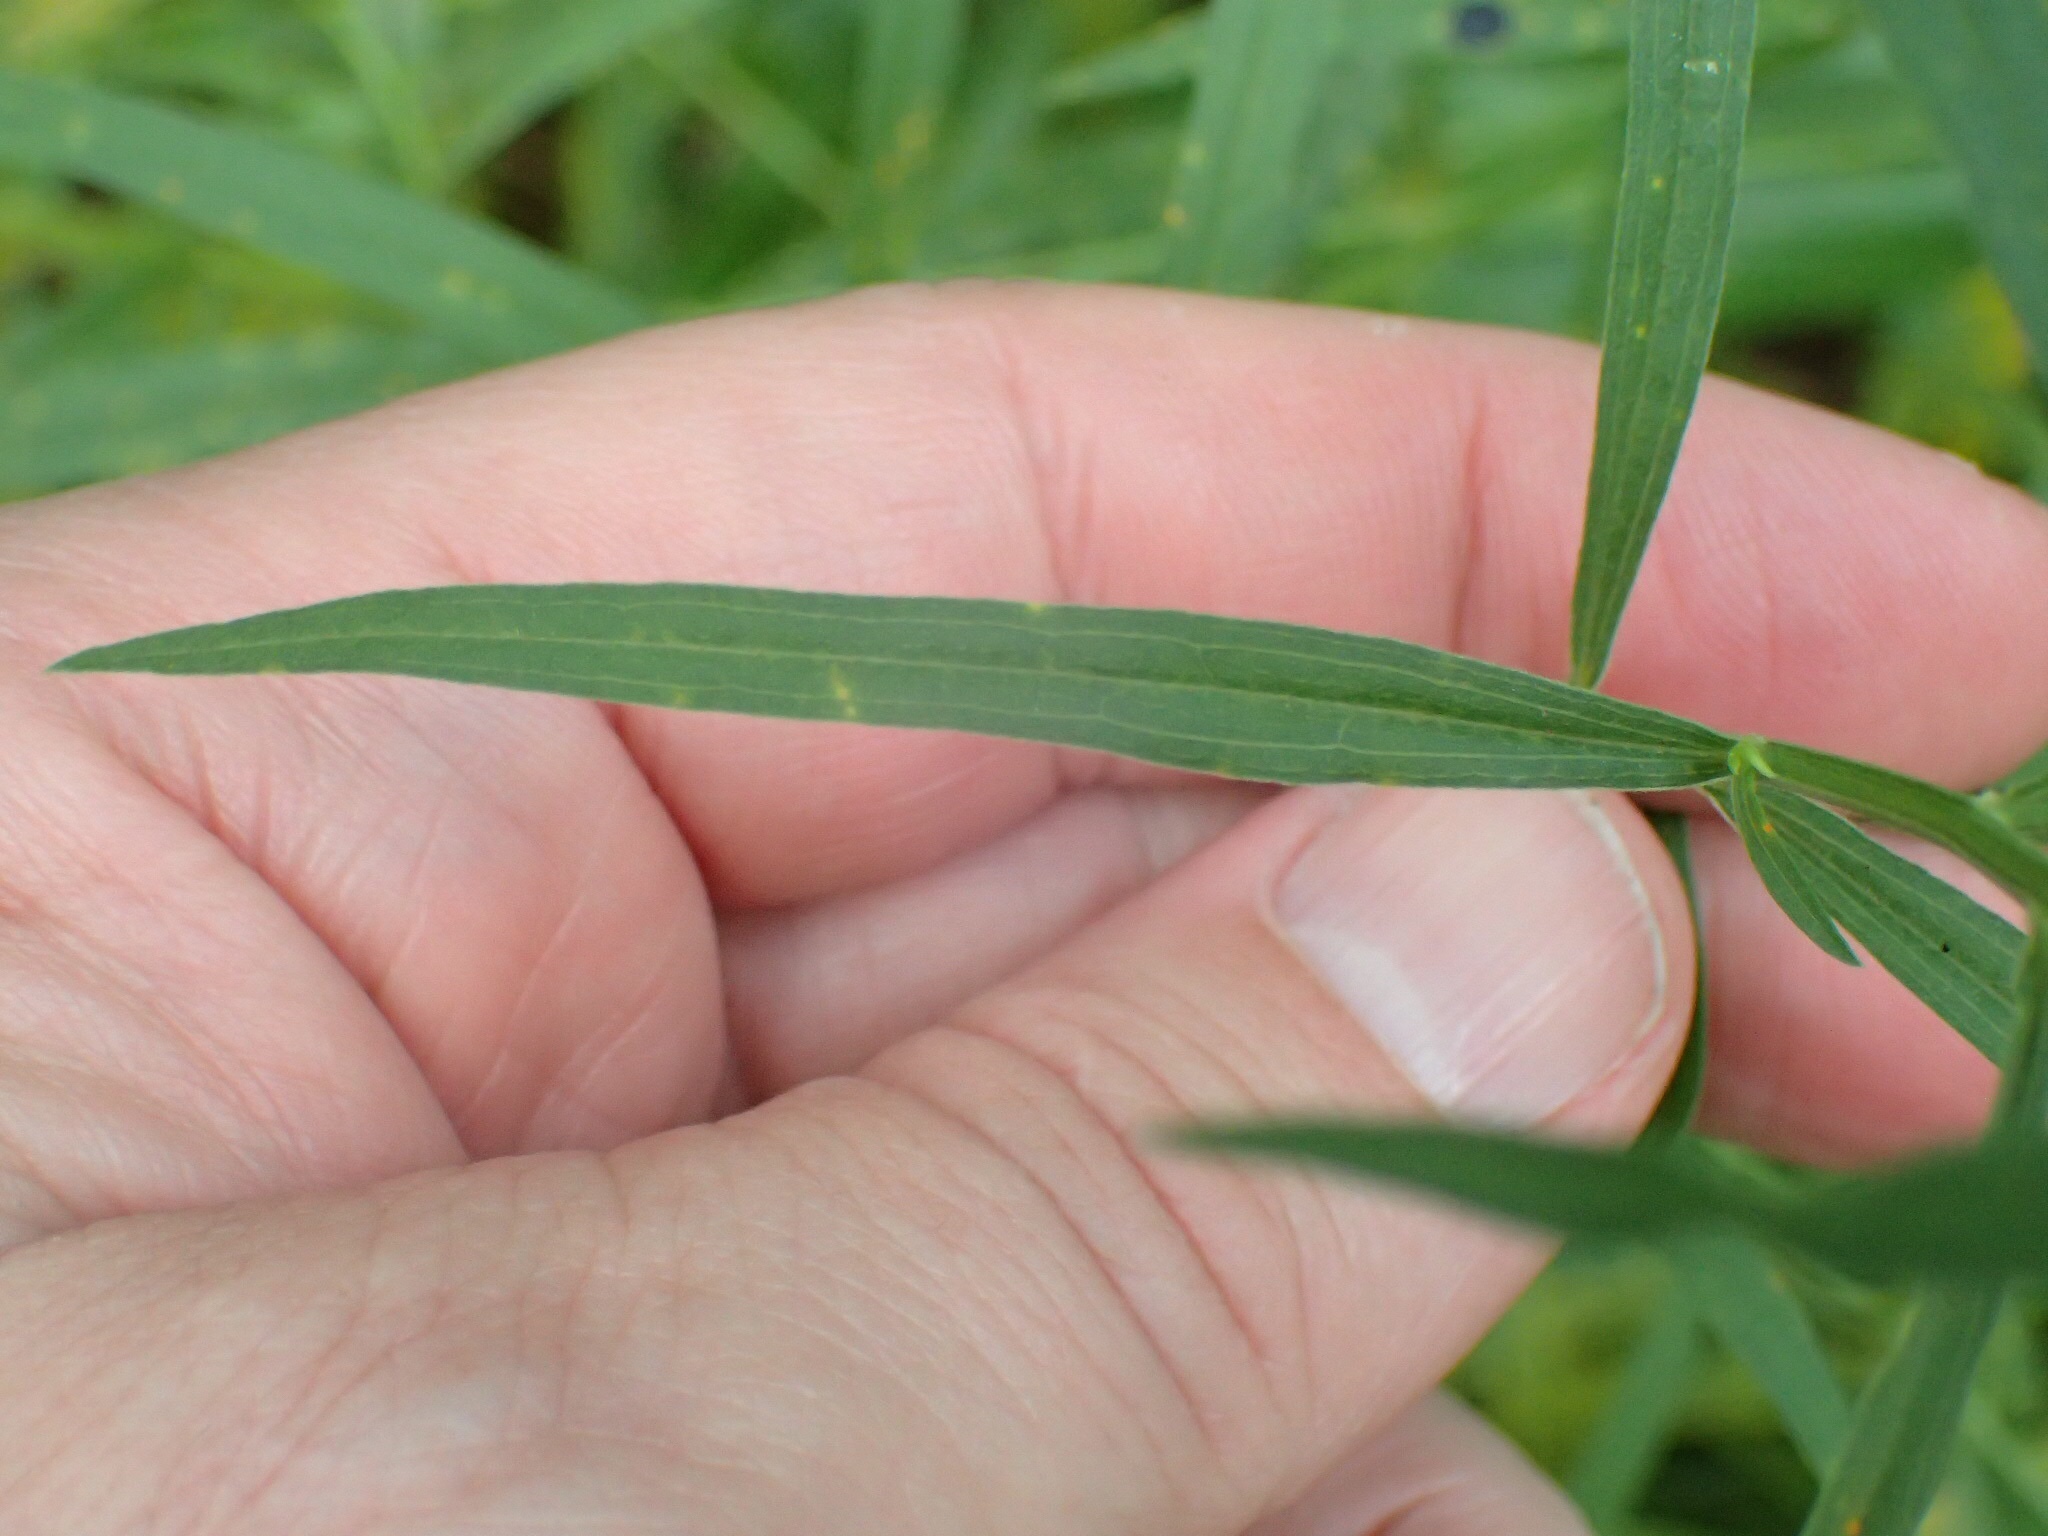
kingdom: Plantae
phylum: Tracheophyta
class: Magnoliopsida
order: Asterales
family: Asteraceae
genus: Euthamia
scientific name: Euthamia graminifolia
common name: Common goldentop
